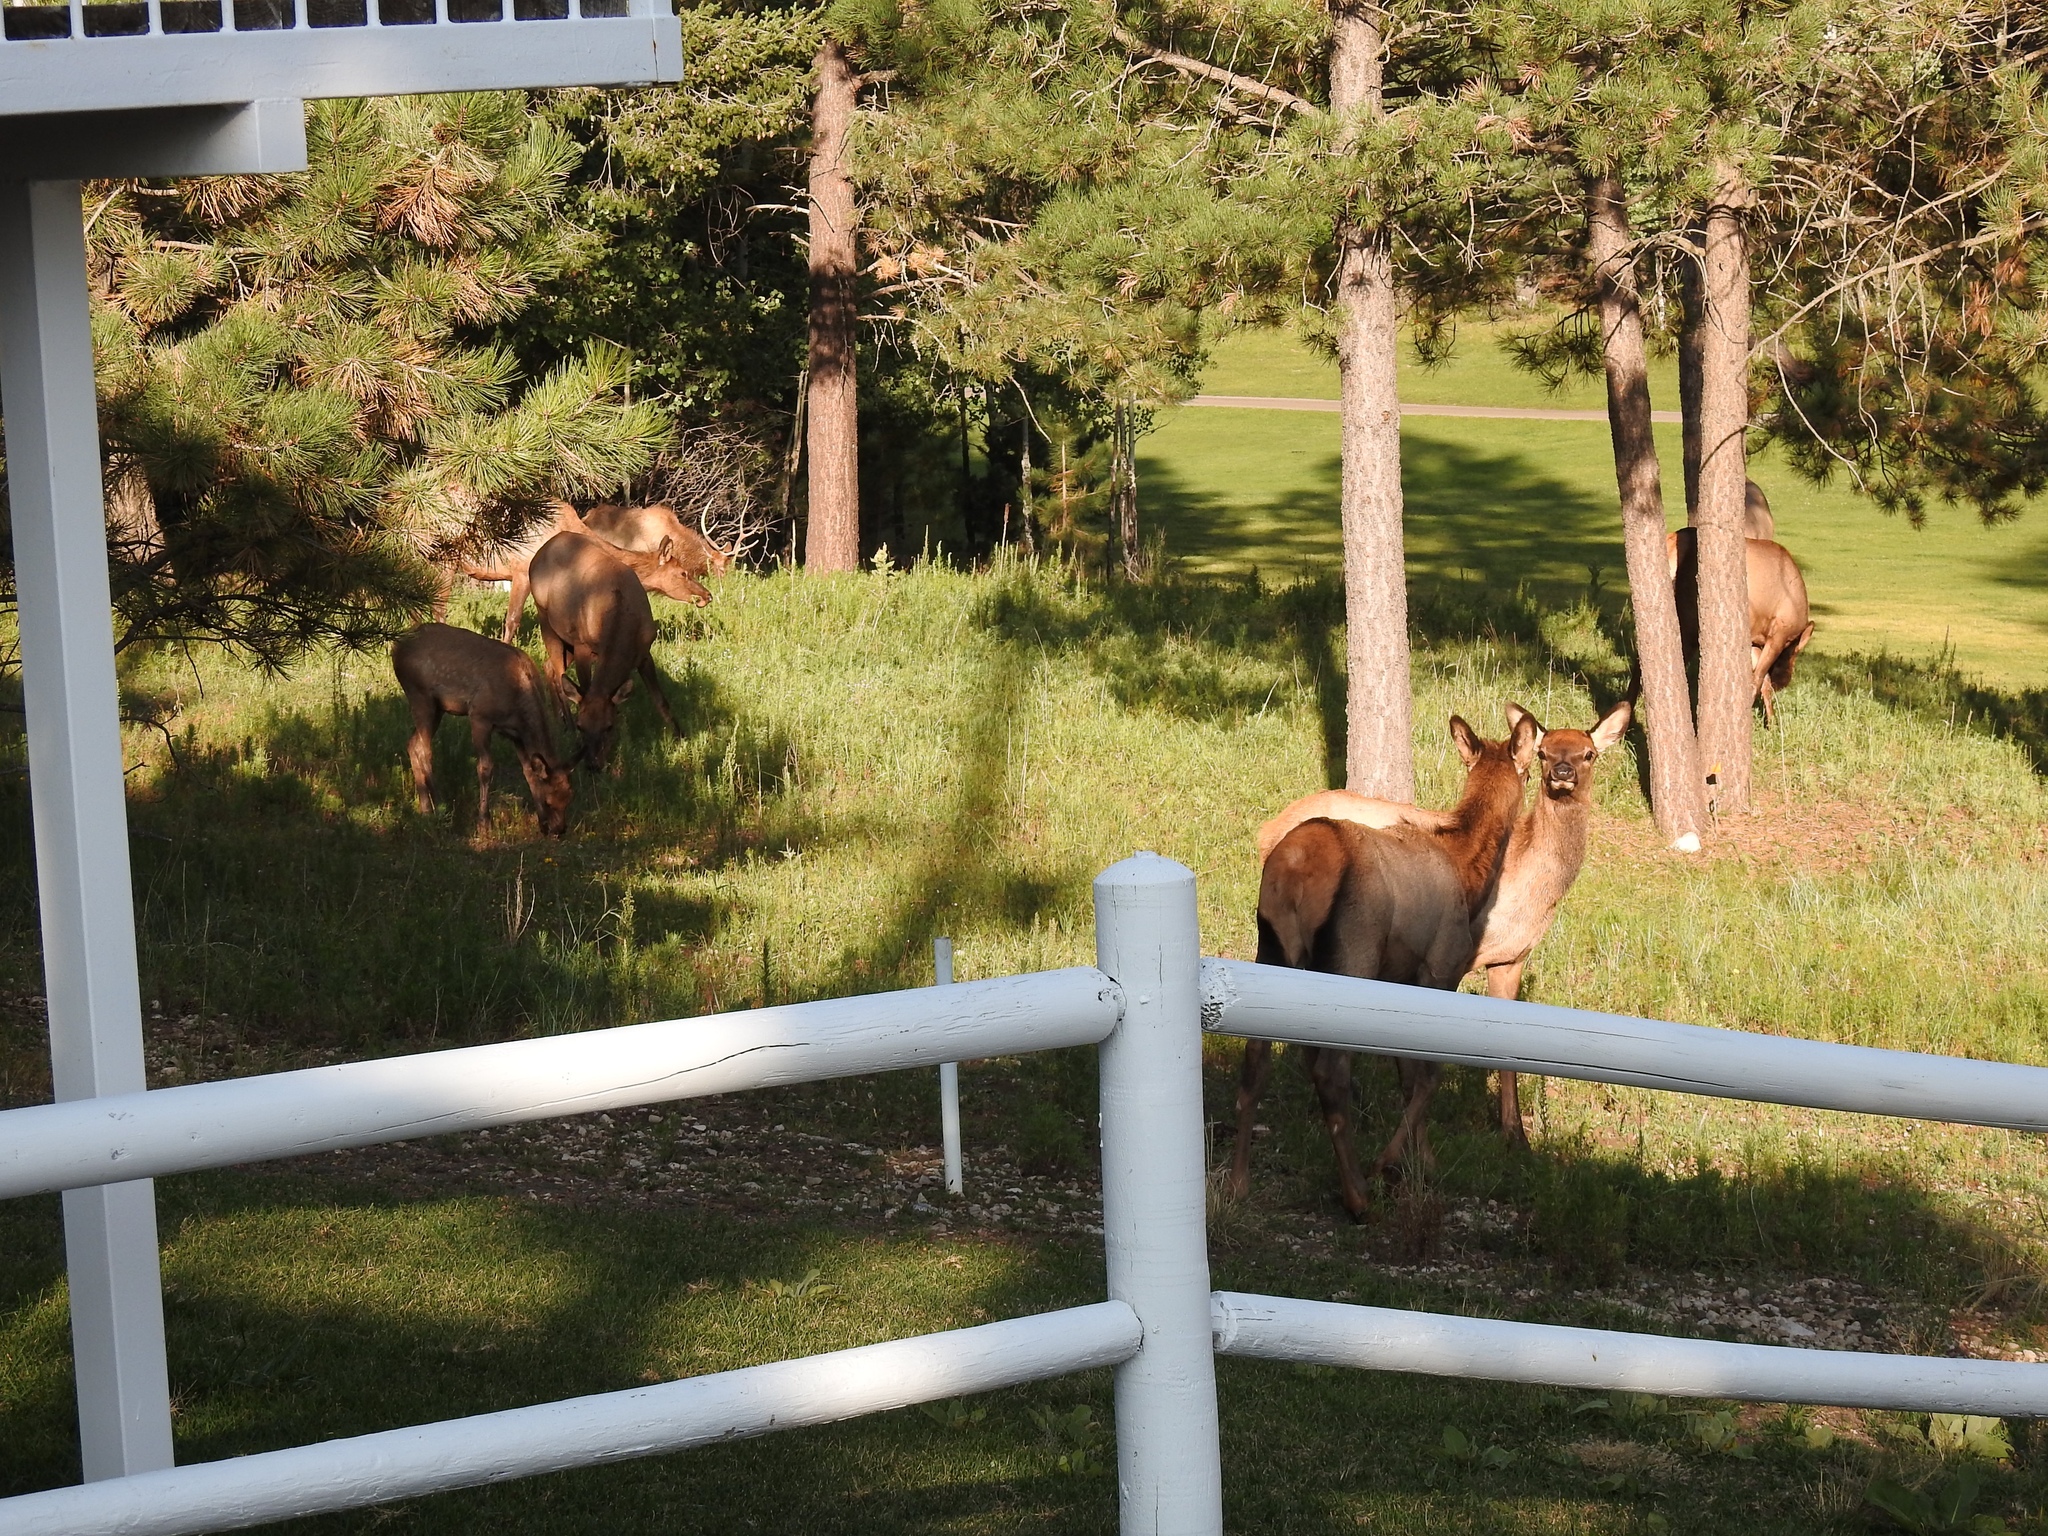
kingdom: Animalia
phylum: Chordata
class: Mammalia
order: Artiodactyla
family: Cervidae
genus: Cervus
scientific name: Cervus elaphus
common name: Red deer
